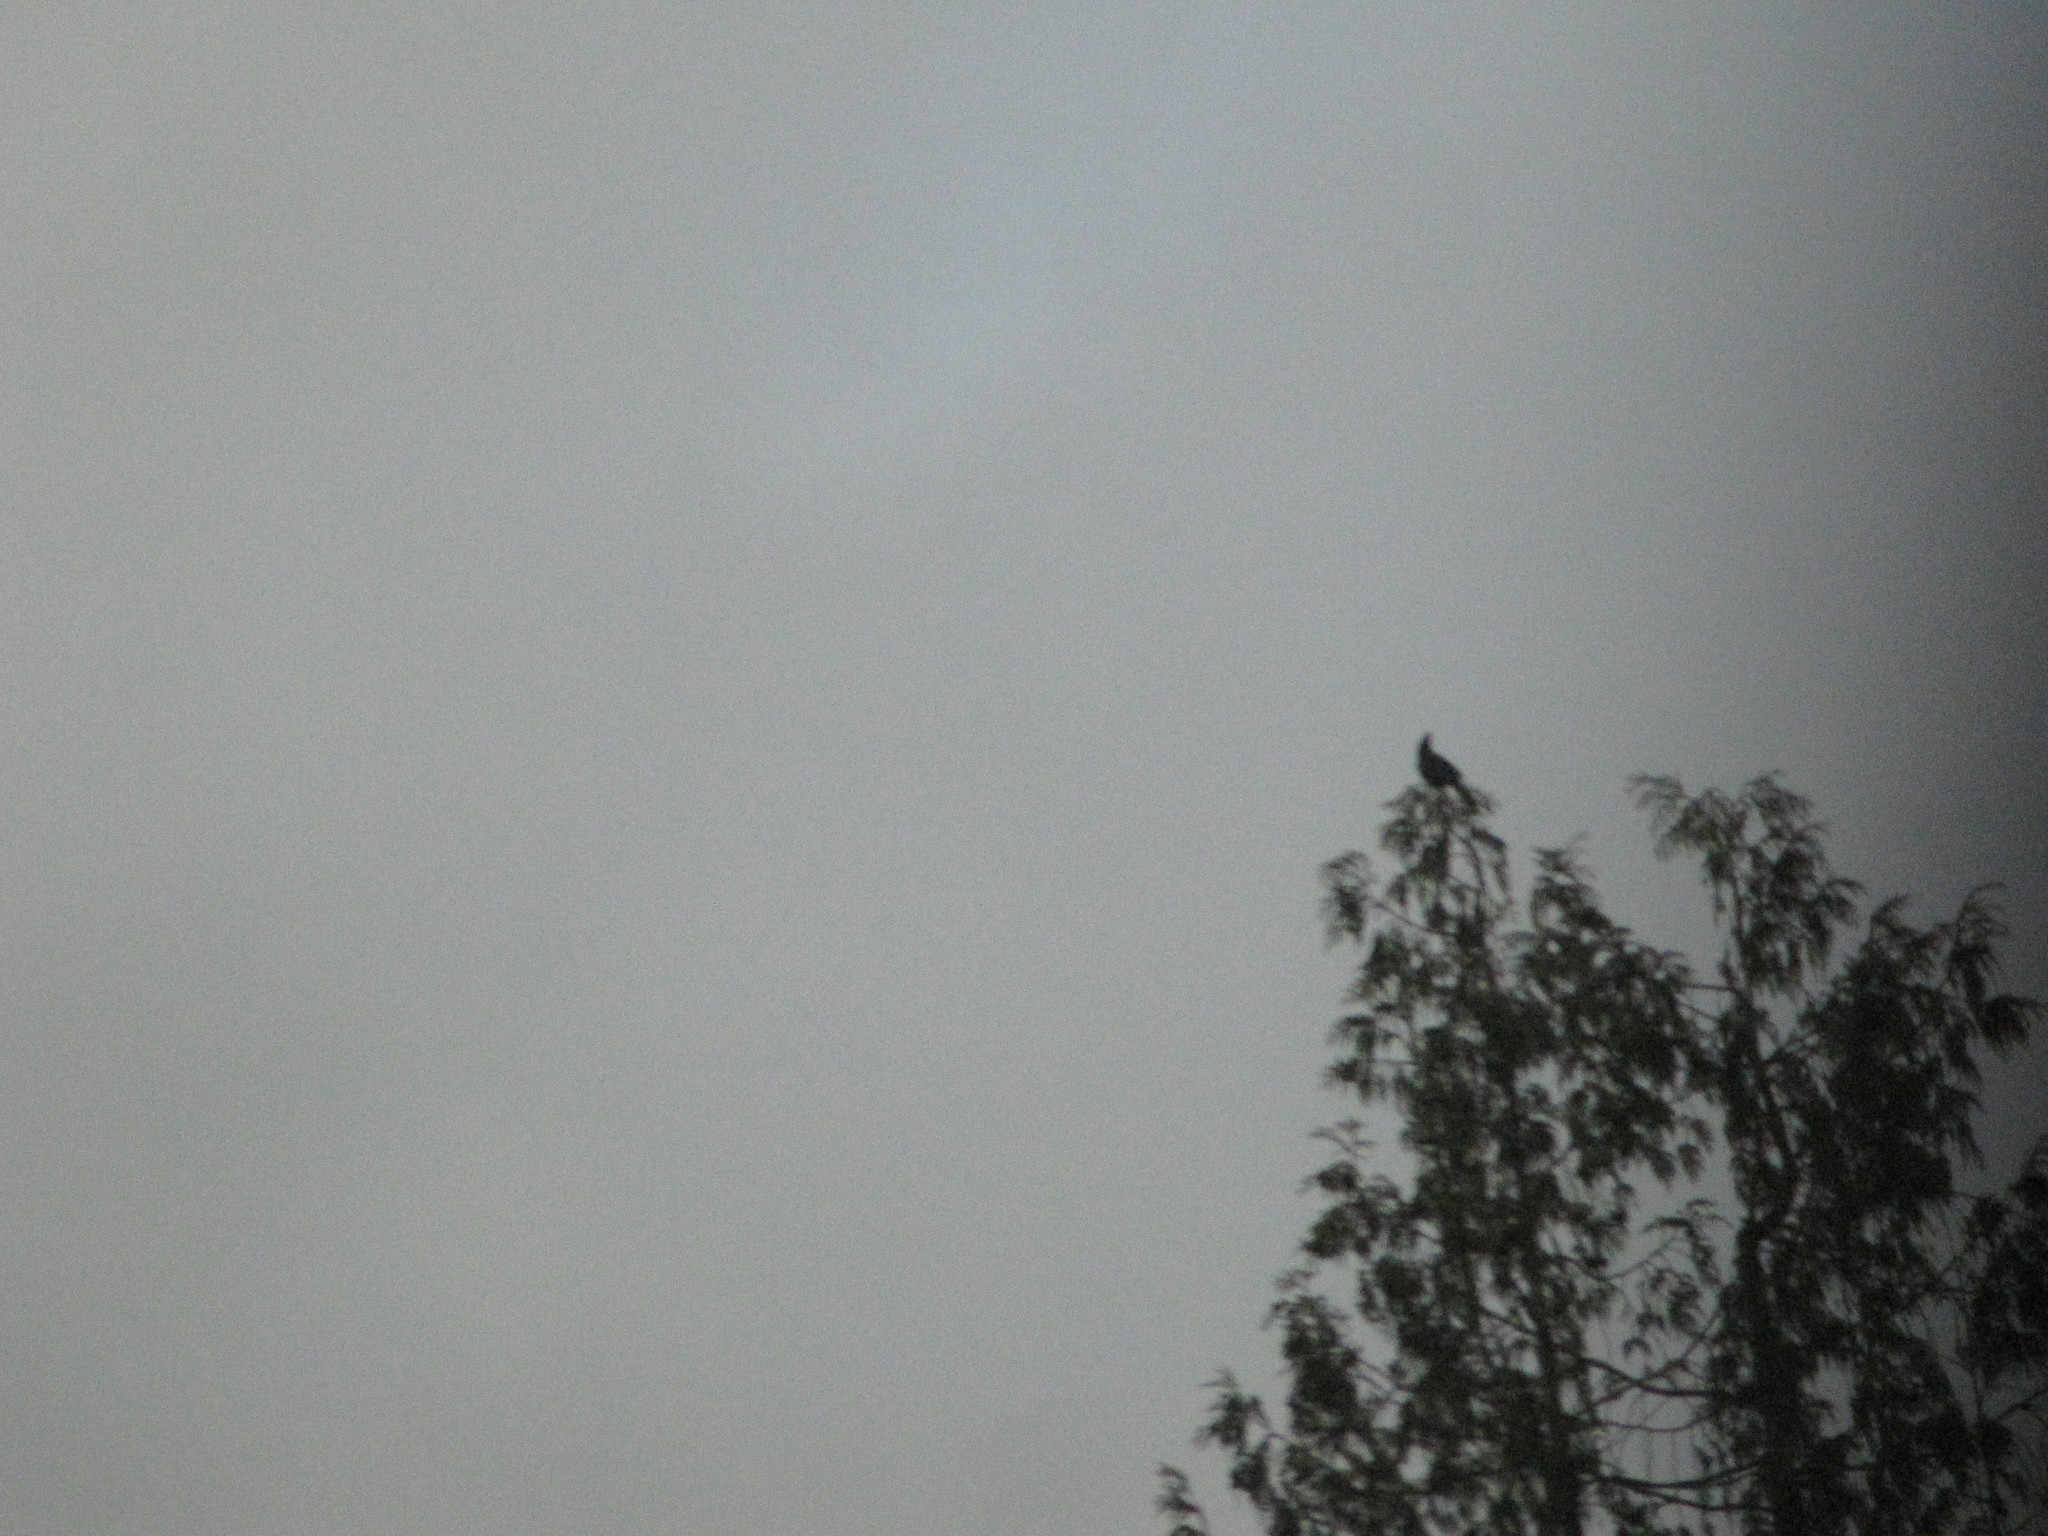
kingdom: Animalia
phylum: Chordata
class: Aves
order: Passeriformes
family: Corvidae
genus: Cyanocitta
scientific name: Cyanocitta stelleri
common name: Steller's jay
